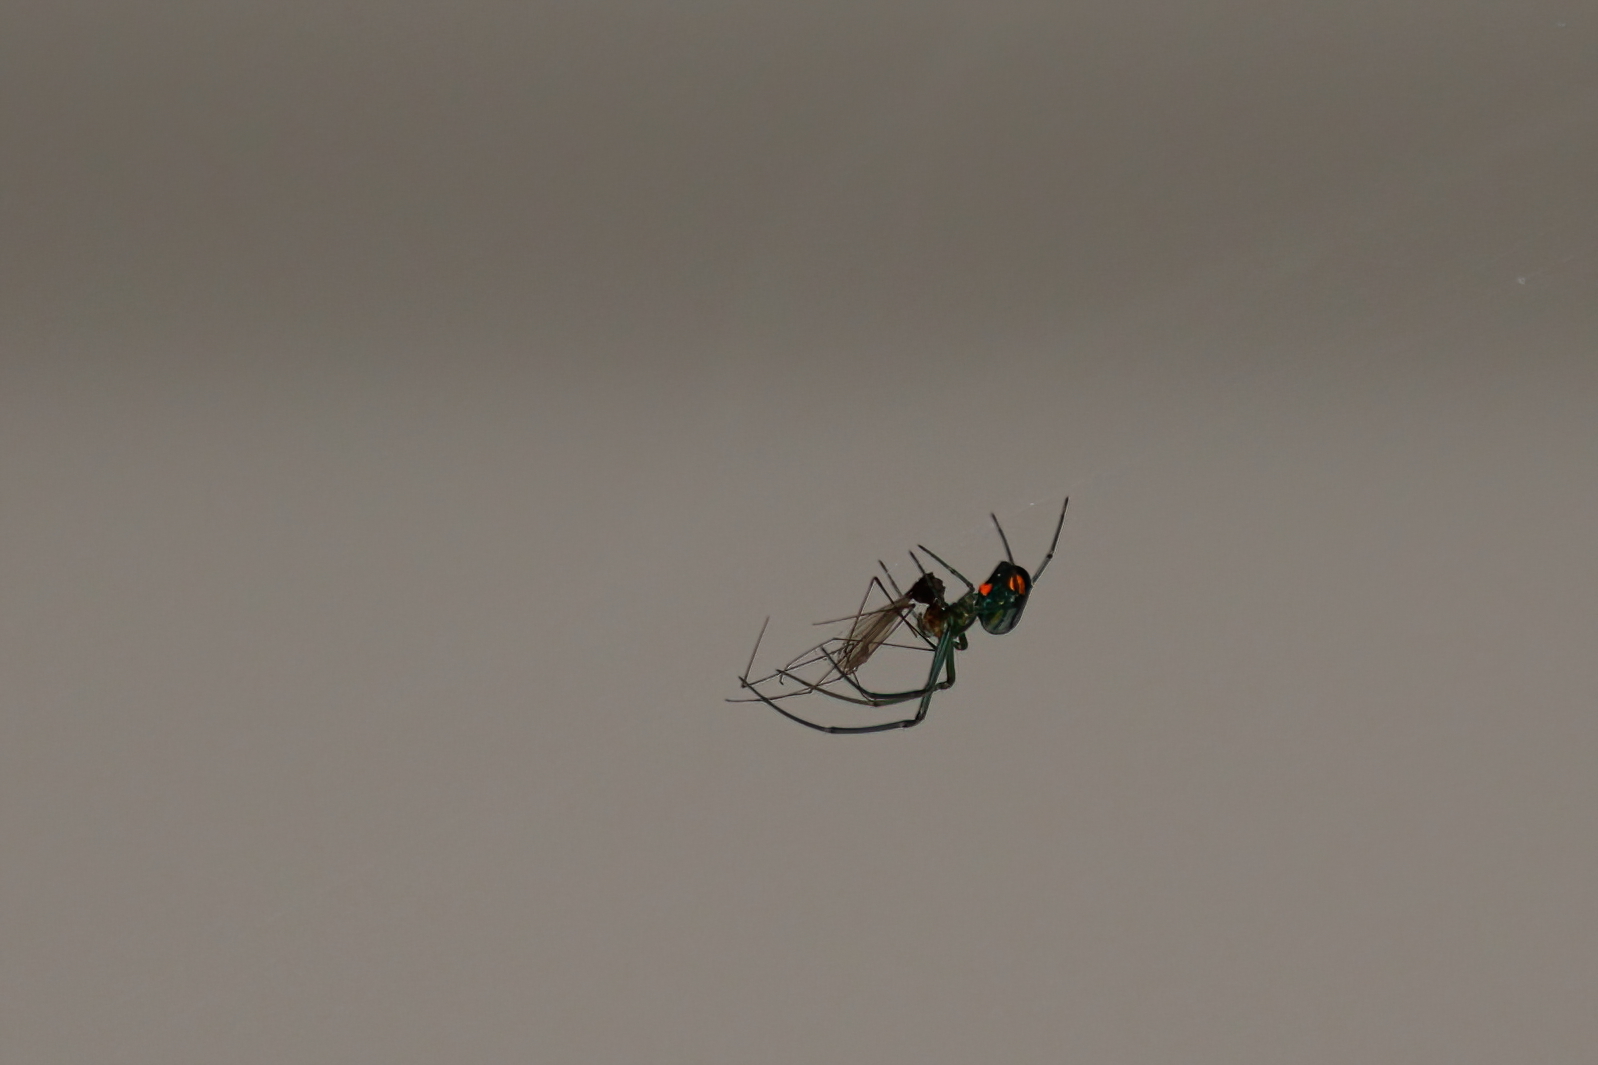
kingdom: Animalia
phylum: Arthropoda
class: Arachnida
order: Araneae
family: Tetragnathidae
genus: Leucauge
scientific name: Leucauge argyrobapta
